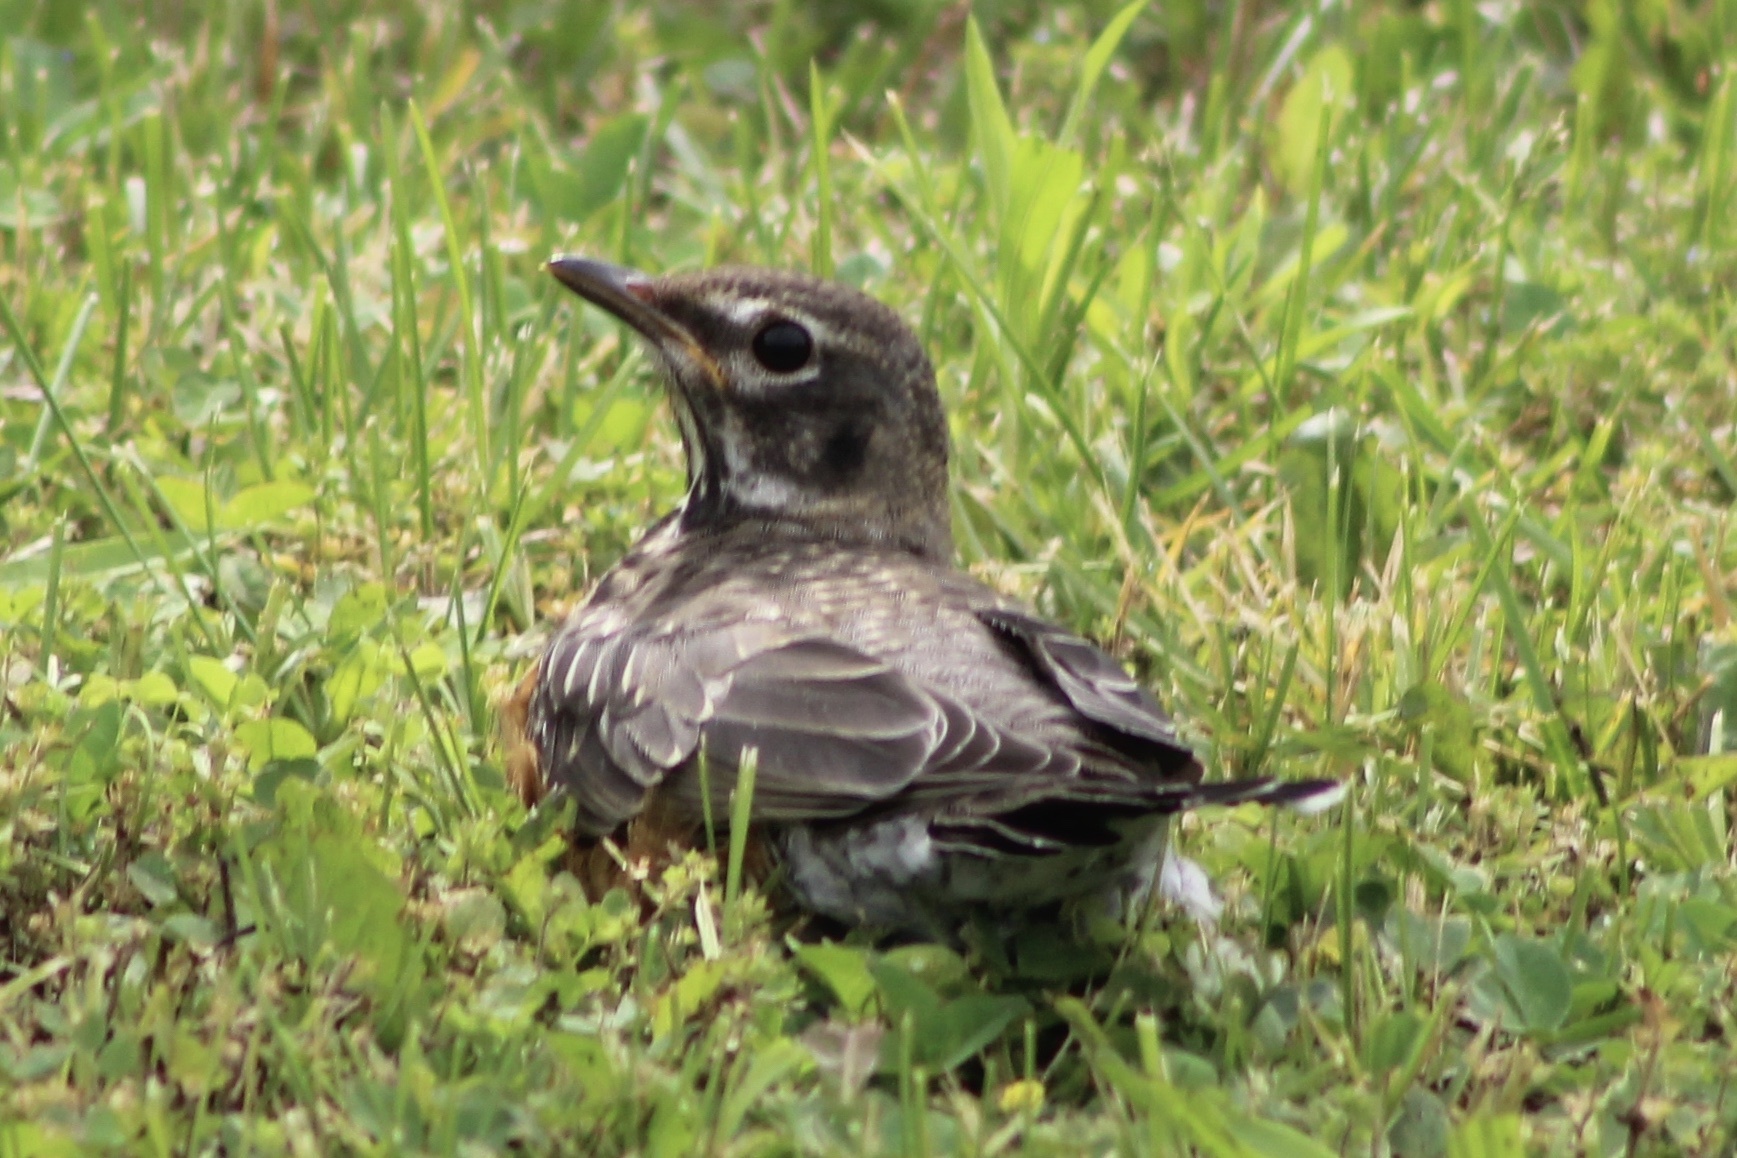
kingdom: Animalia
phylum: Chordata
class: Aves
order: Passeriformes
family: Turdidae
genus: Turdus
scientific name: Turdus migratorius
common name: American robin
